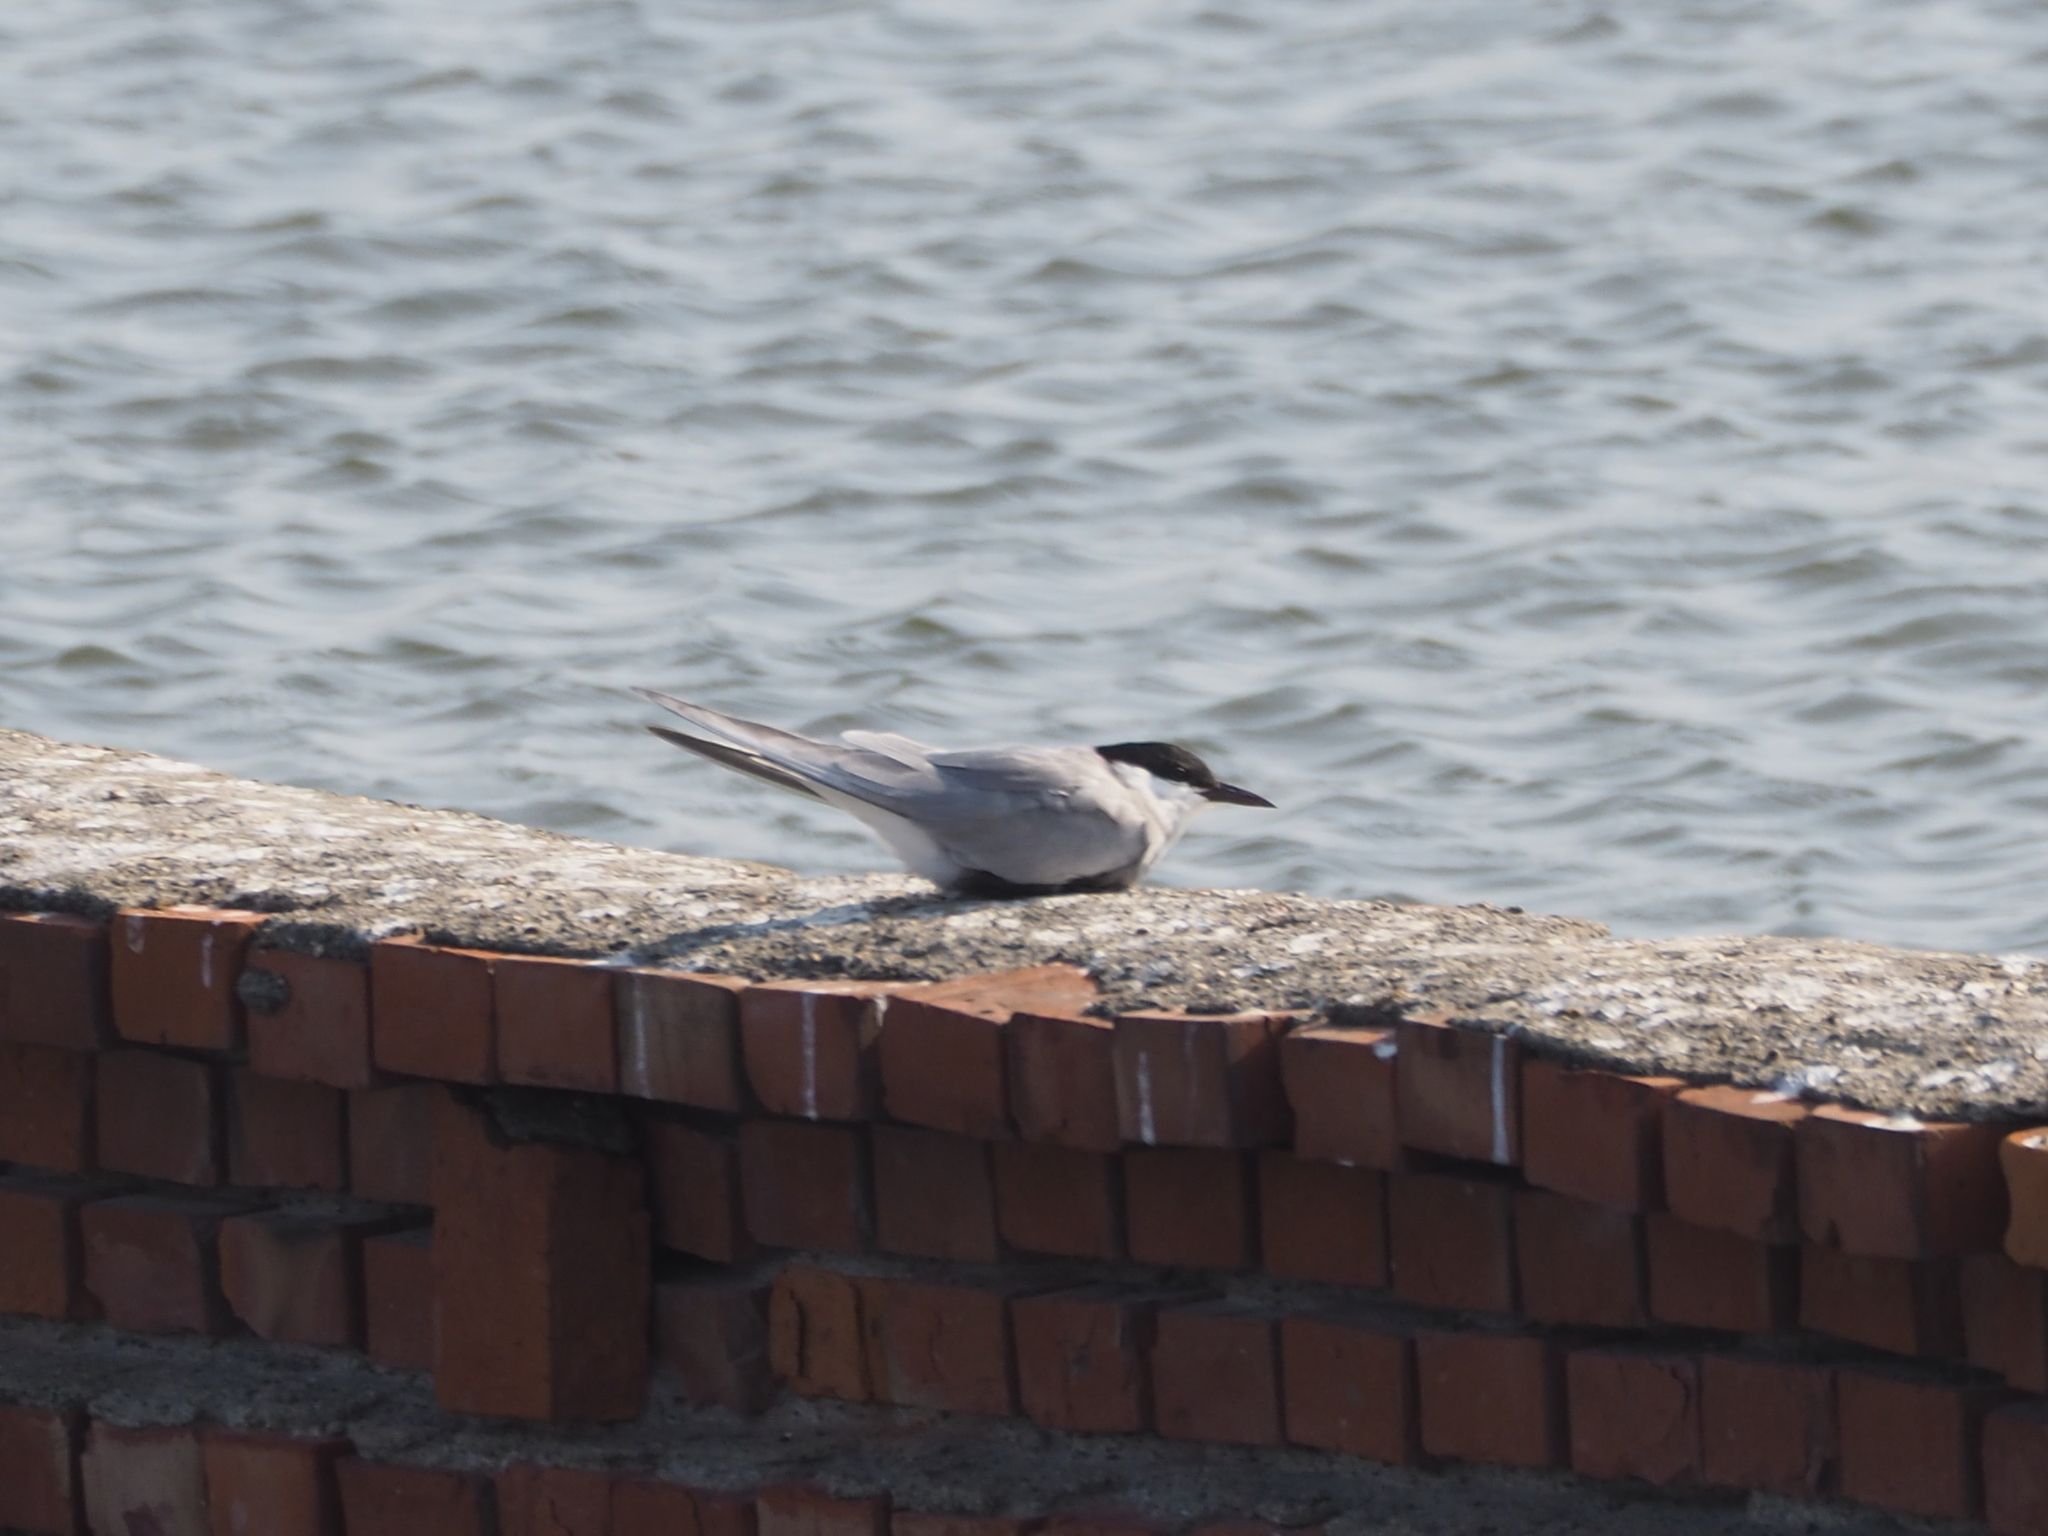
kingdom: Animalia
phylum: Chordata
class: Aves
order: Charadriiformes
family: Laridae
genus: Chlidonias
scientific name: Chlidonias hybrida
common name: Whiskered tern
